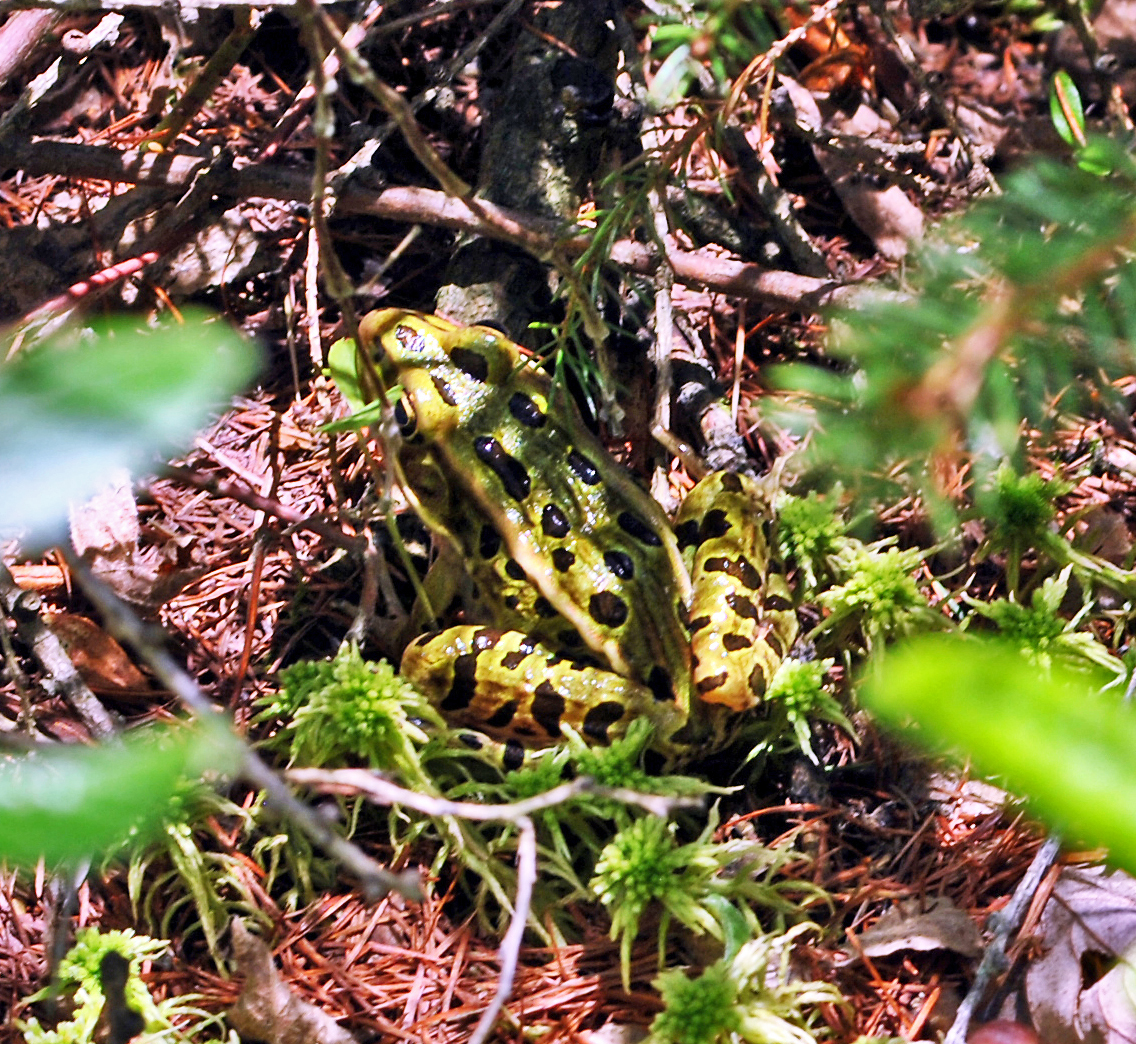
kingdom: Animalia
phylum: Chordata
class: Amphibia
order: Anura
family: Ranidae
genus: Lithobates
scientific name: Lithobates pipiens
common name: Northern leopard frog
